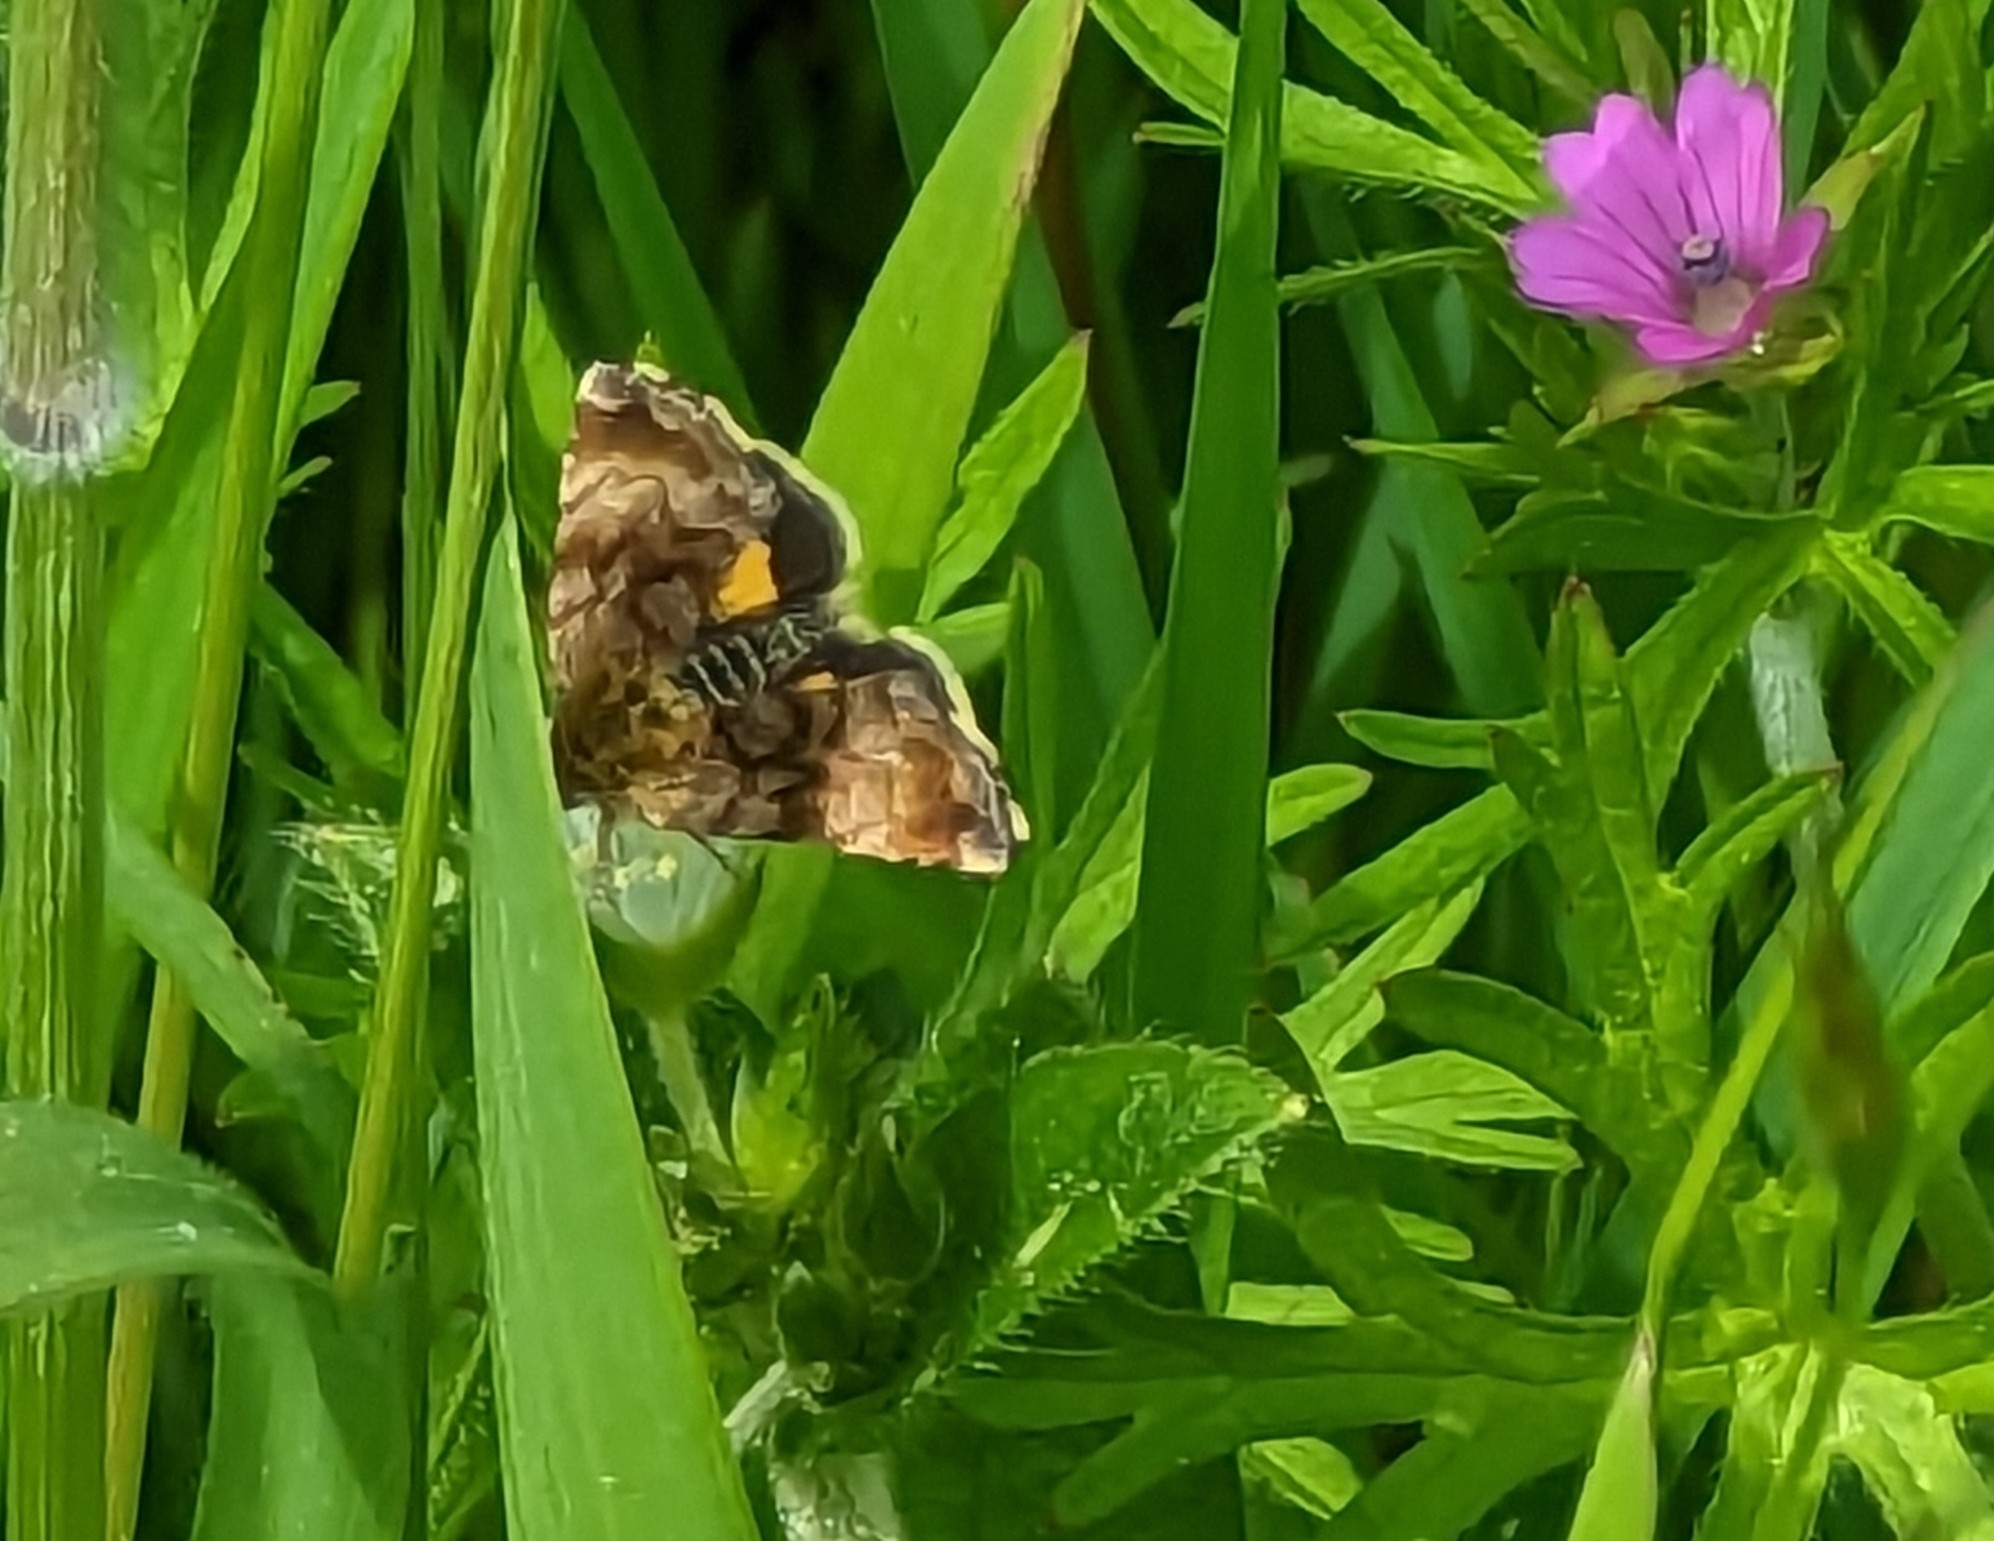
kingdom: Animalia
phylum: Arthropoda
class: Insecta
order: Lepidoptera
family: Noctuidae
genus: Panemeria
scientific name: Panemeria tenebrata
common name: Small yellow underwing
